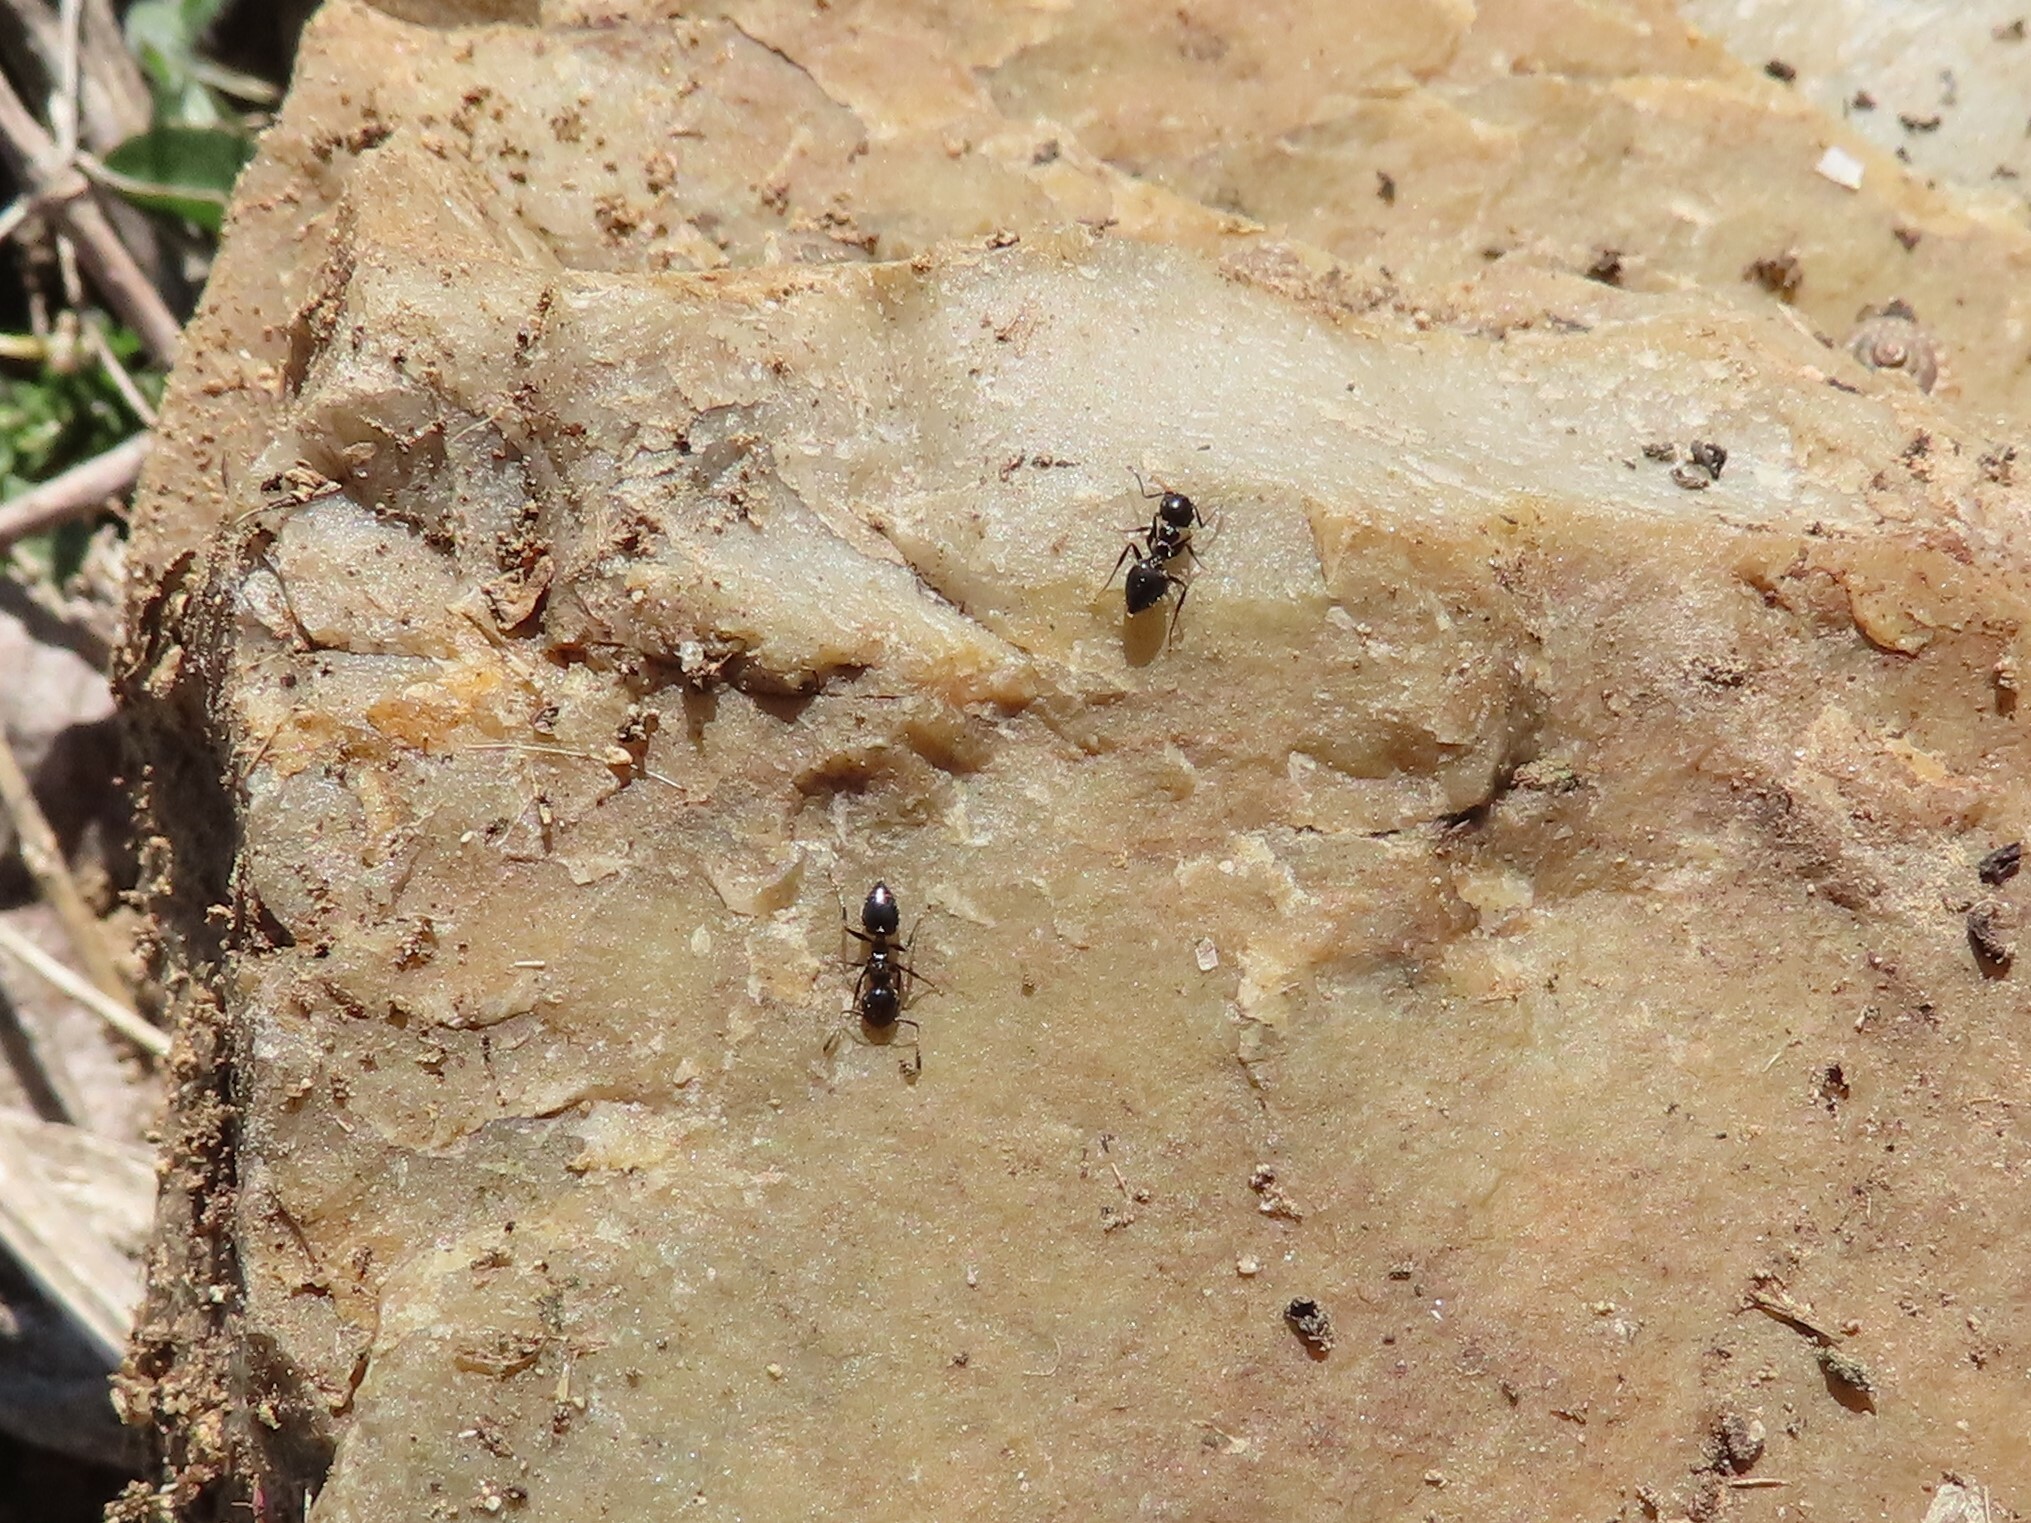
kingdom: Animalia
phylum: Arthropoda
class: Insecta
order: Hymenoptera
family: Formicidae
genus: Crematogaster
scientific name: Crematogaster auberti
